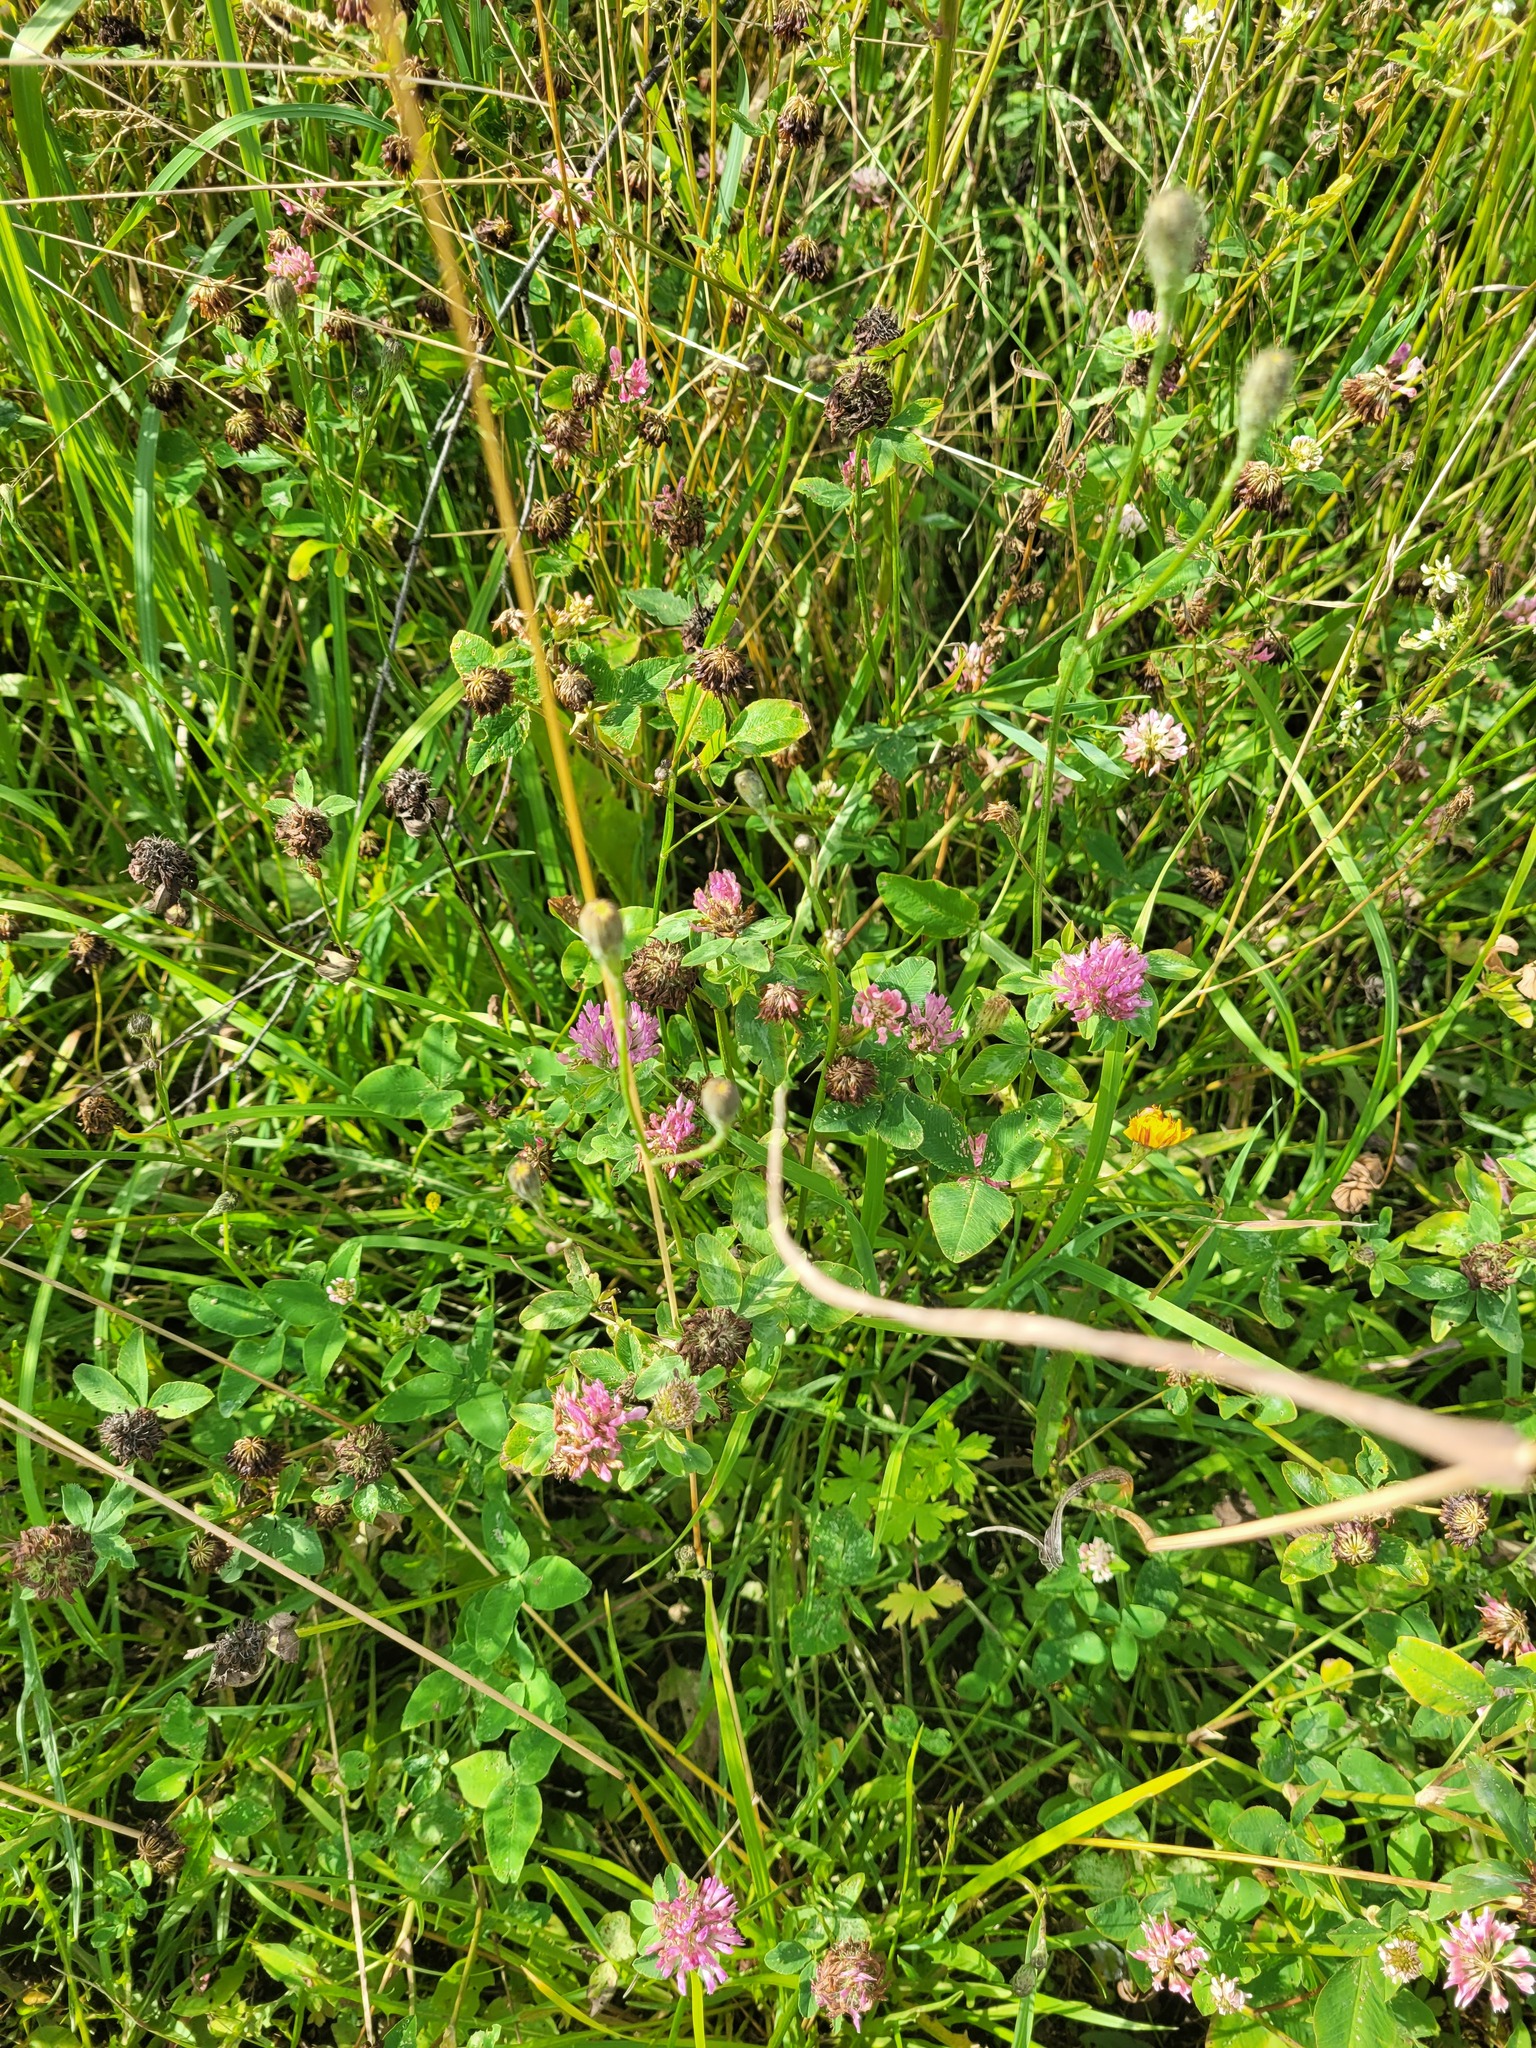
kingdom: Plantae
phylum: Tracheophyta
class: Magnoliopsida
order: Fabales
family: Fabaceae
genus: Trifolium
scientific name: Trifolium pratense
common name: Red clover
